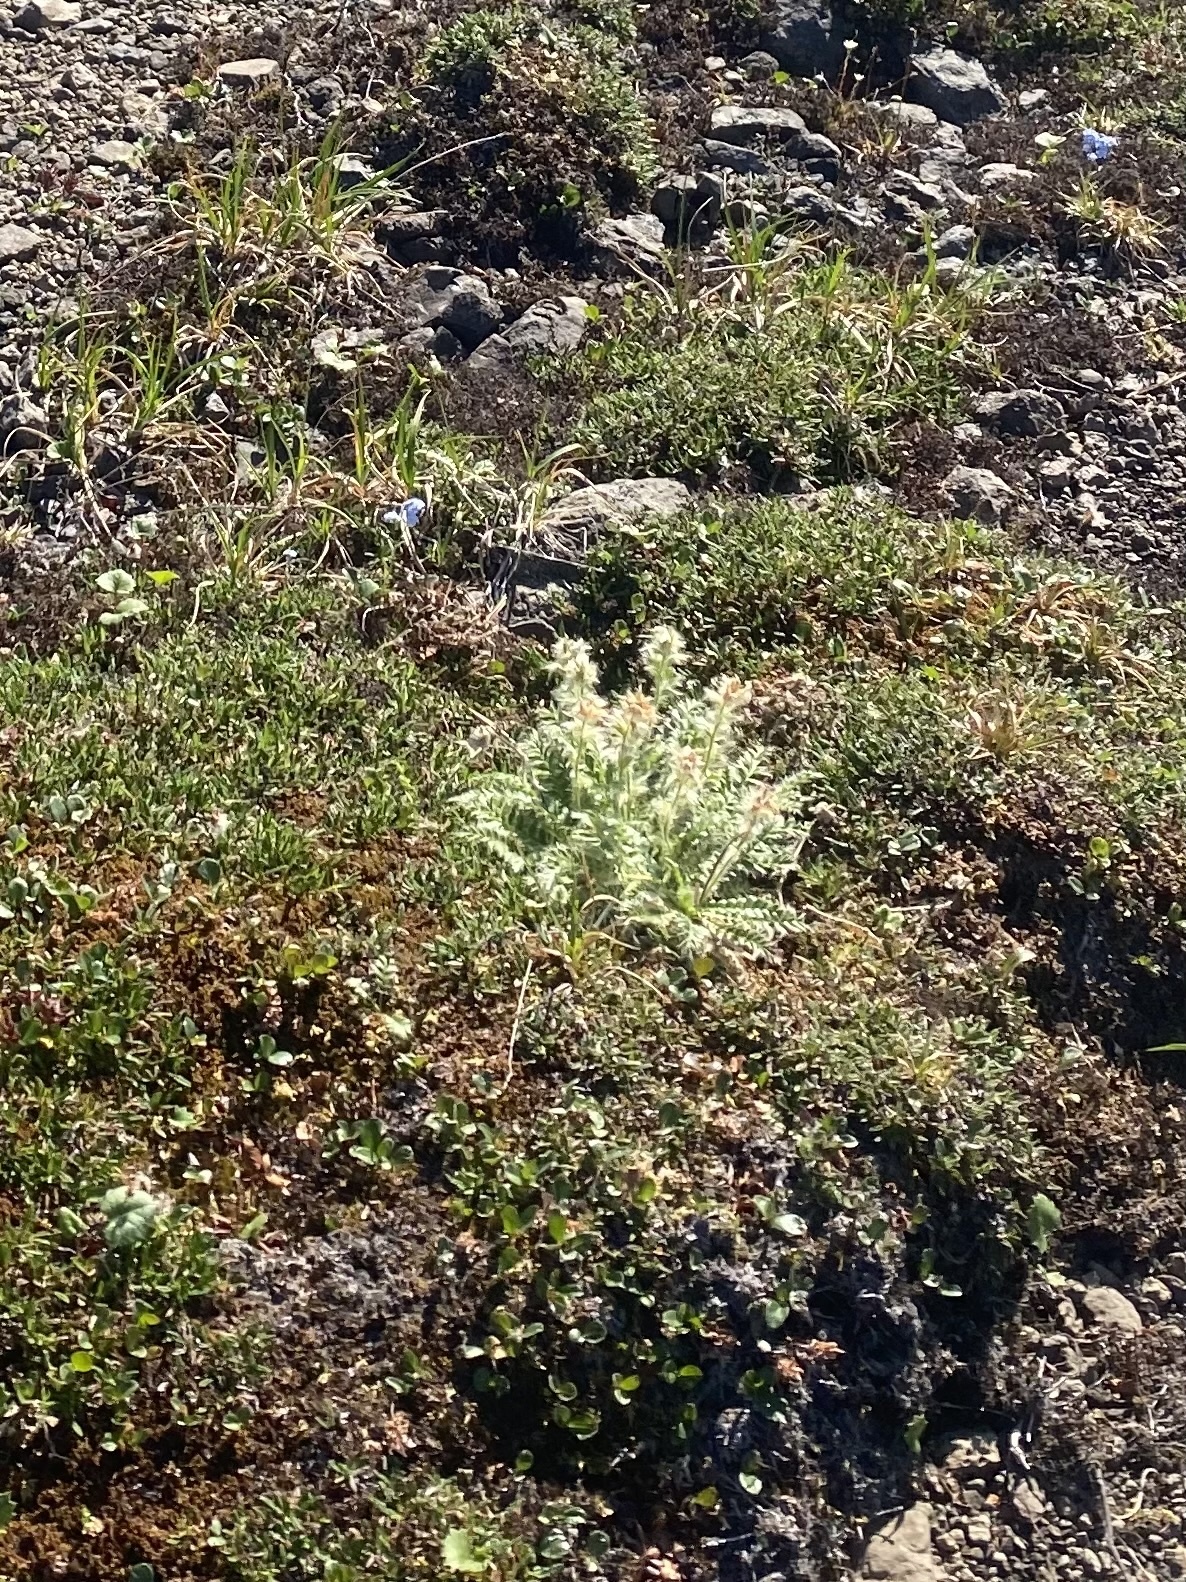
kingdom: Plantae
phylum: Tracheophyta
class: Magnoliopsida
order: Rosales
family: Rosaceae
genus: Geum
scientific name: Geum glaciale
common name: Glacier avens
